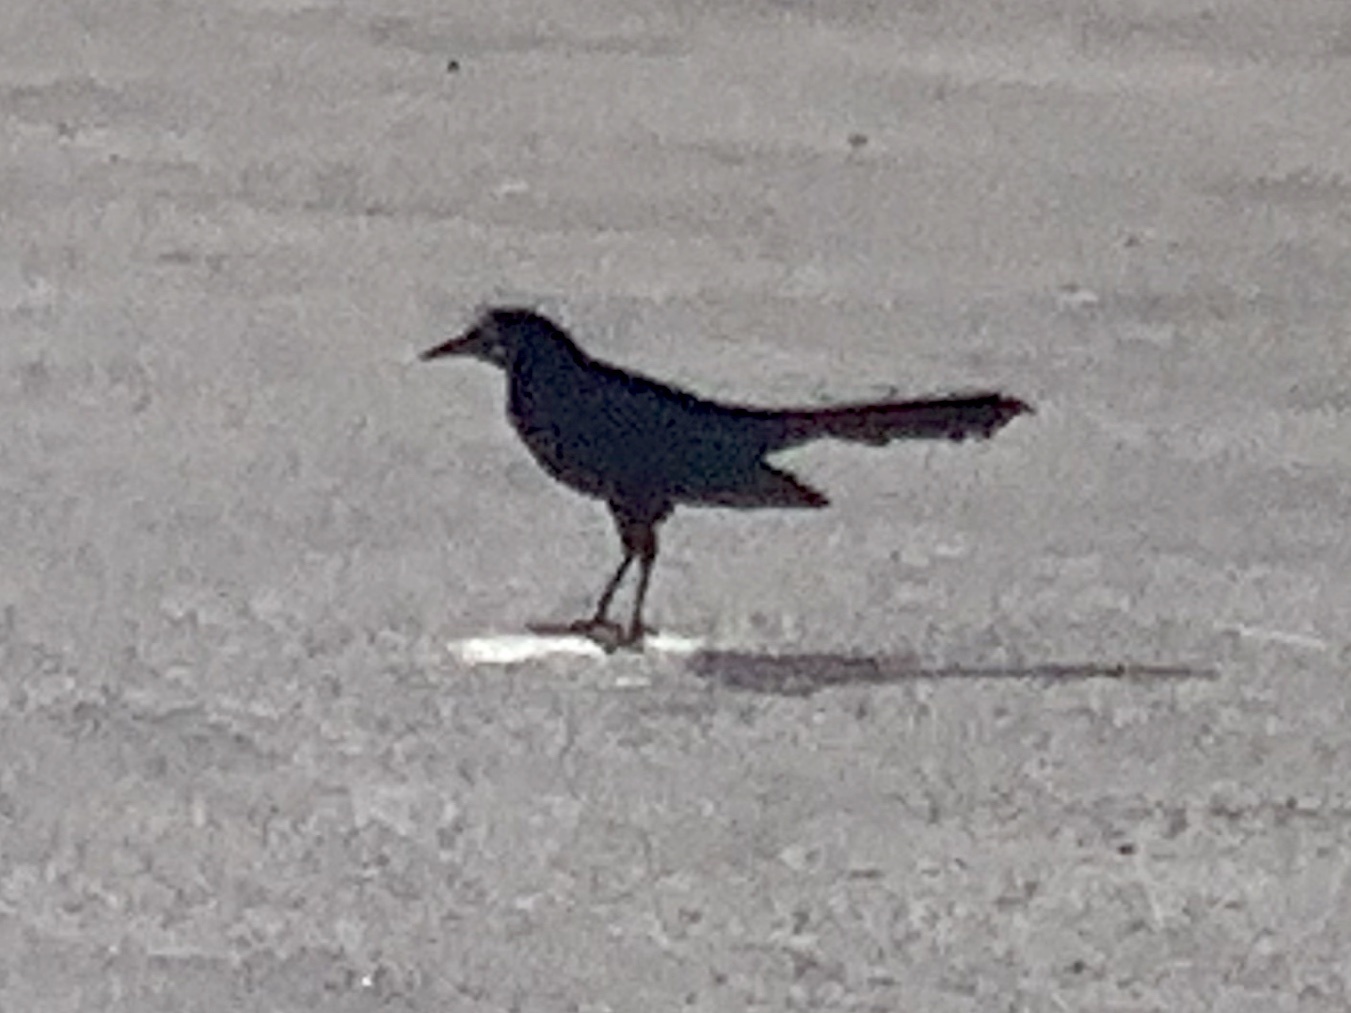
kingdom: Animalia
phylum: Chordata
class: Aves
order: Passeriformes
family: Icteridae
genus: Quiscalus
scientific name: Quiscalus mexicanus
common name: Great-tailed grackle
